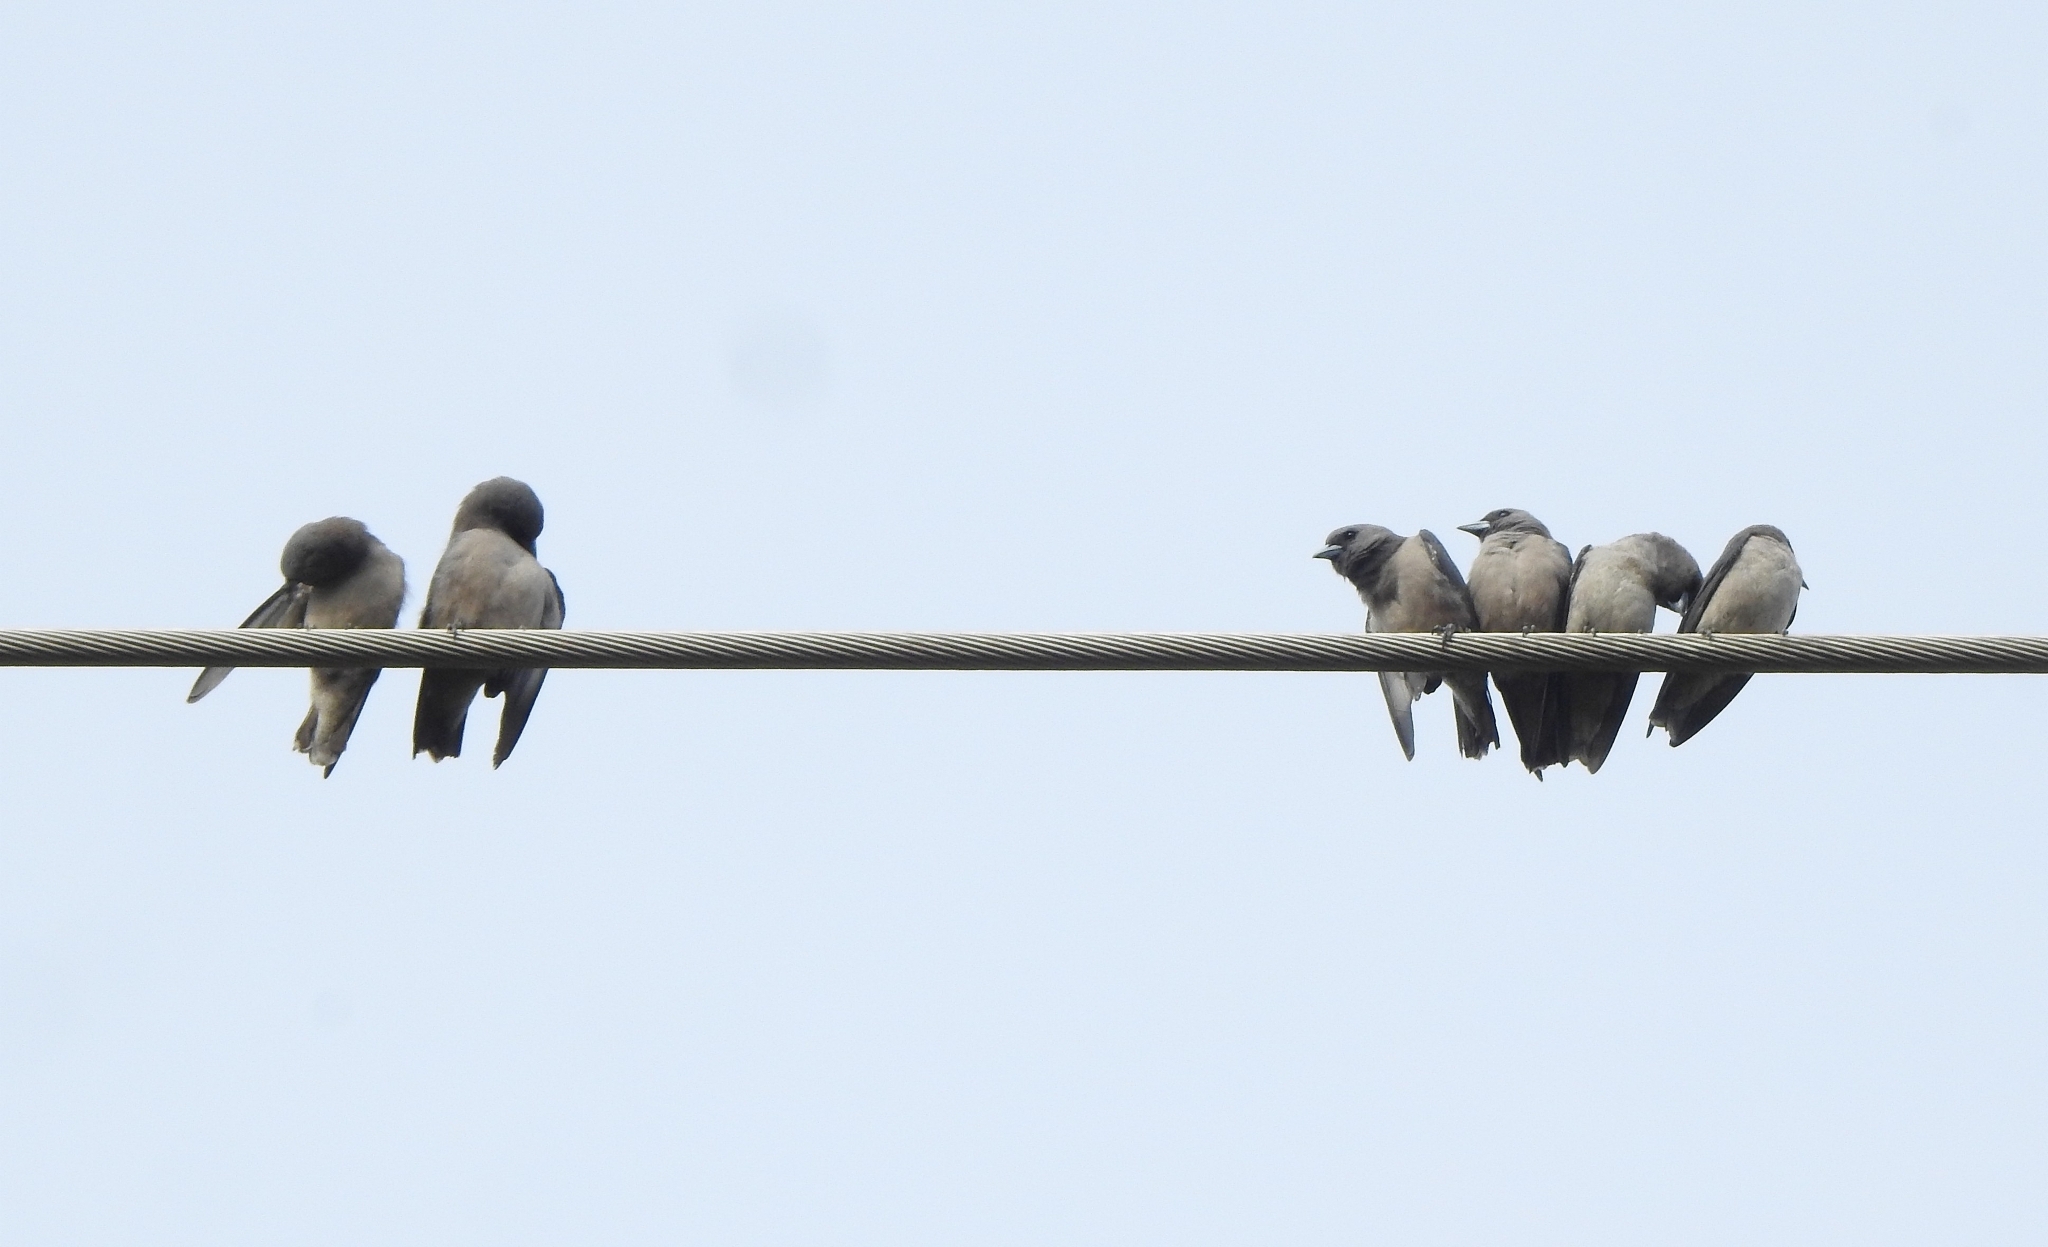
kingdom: Animalia
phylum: Chordata
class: Aves
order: Passeriformes
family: Artamidae
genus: Artamus
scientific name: Artamus fuscus
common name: Ashy woodswallow
